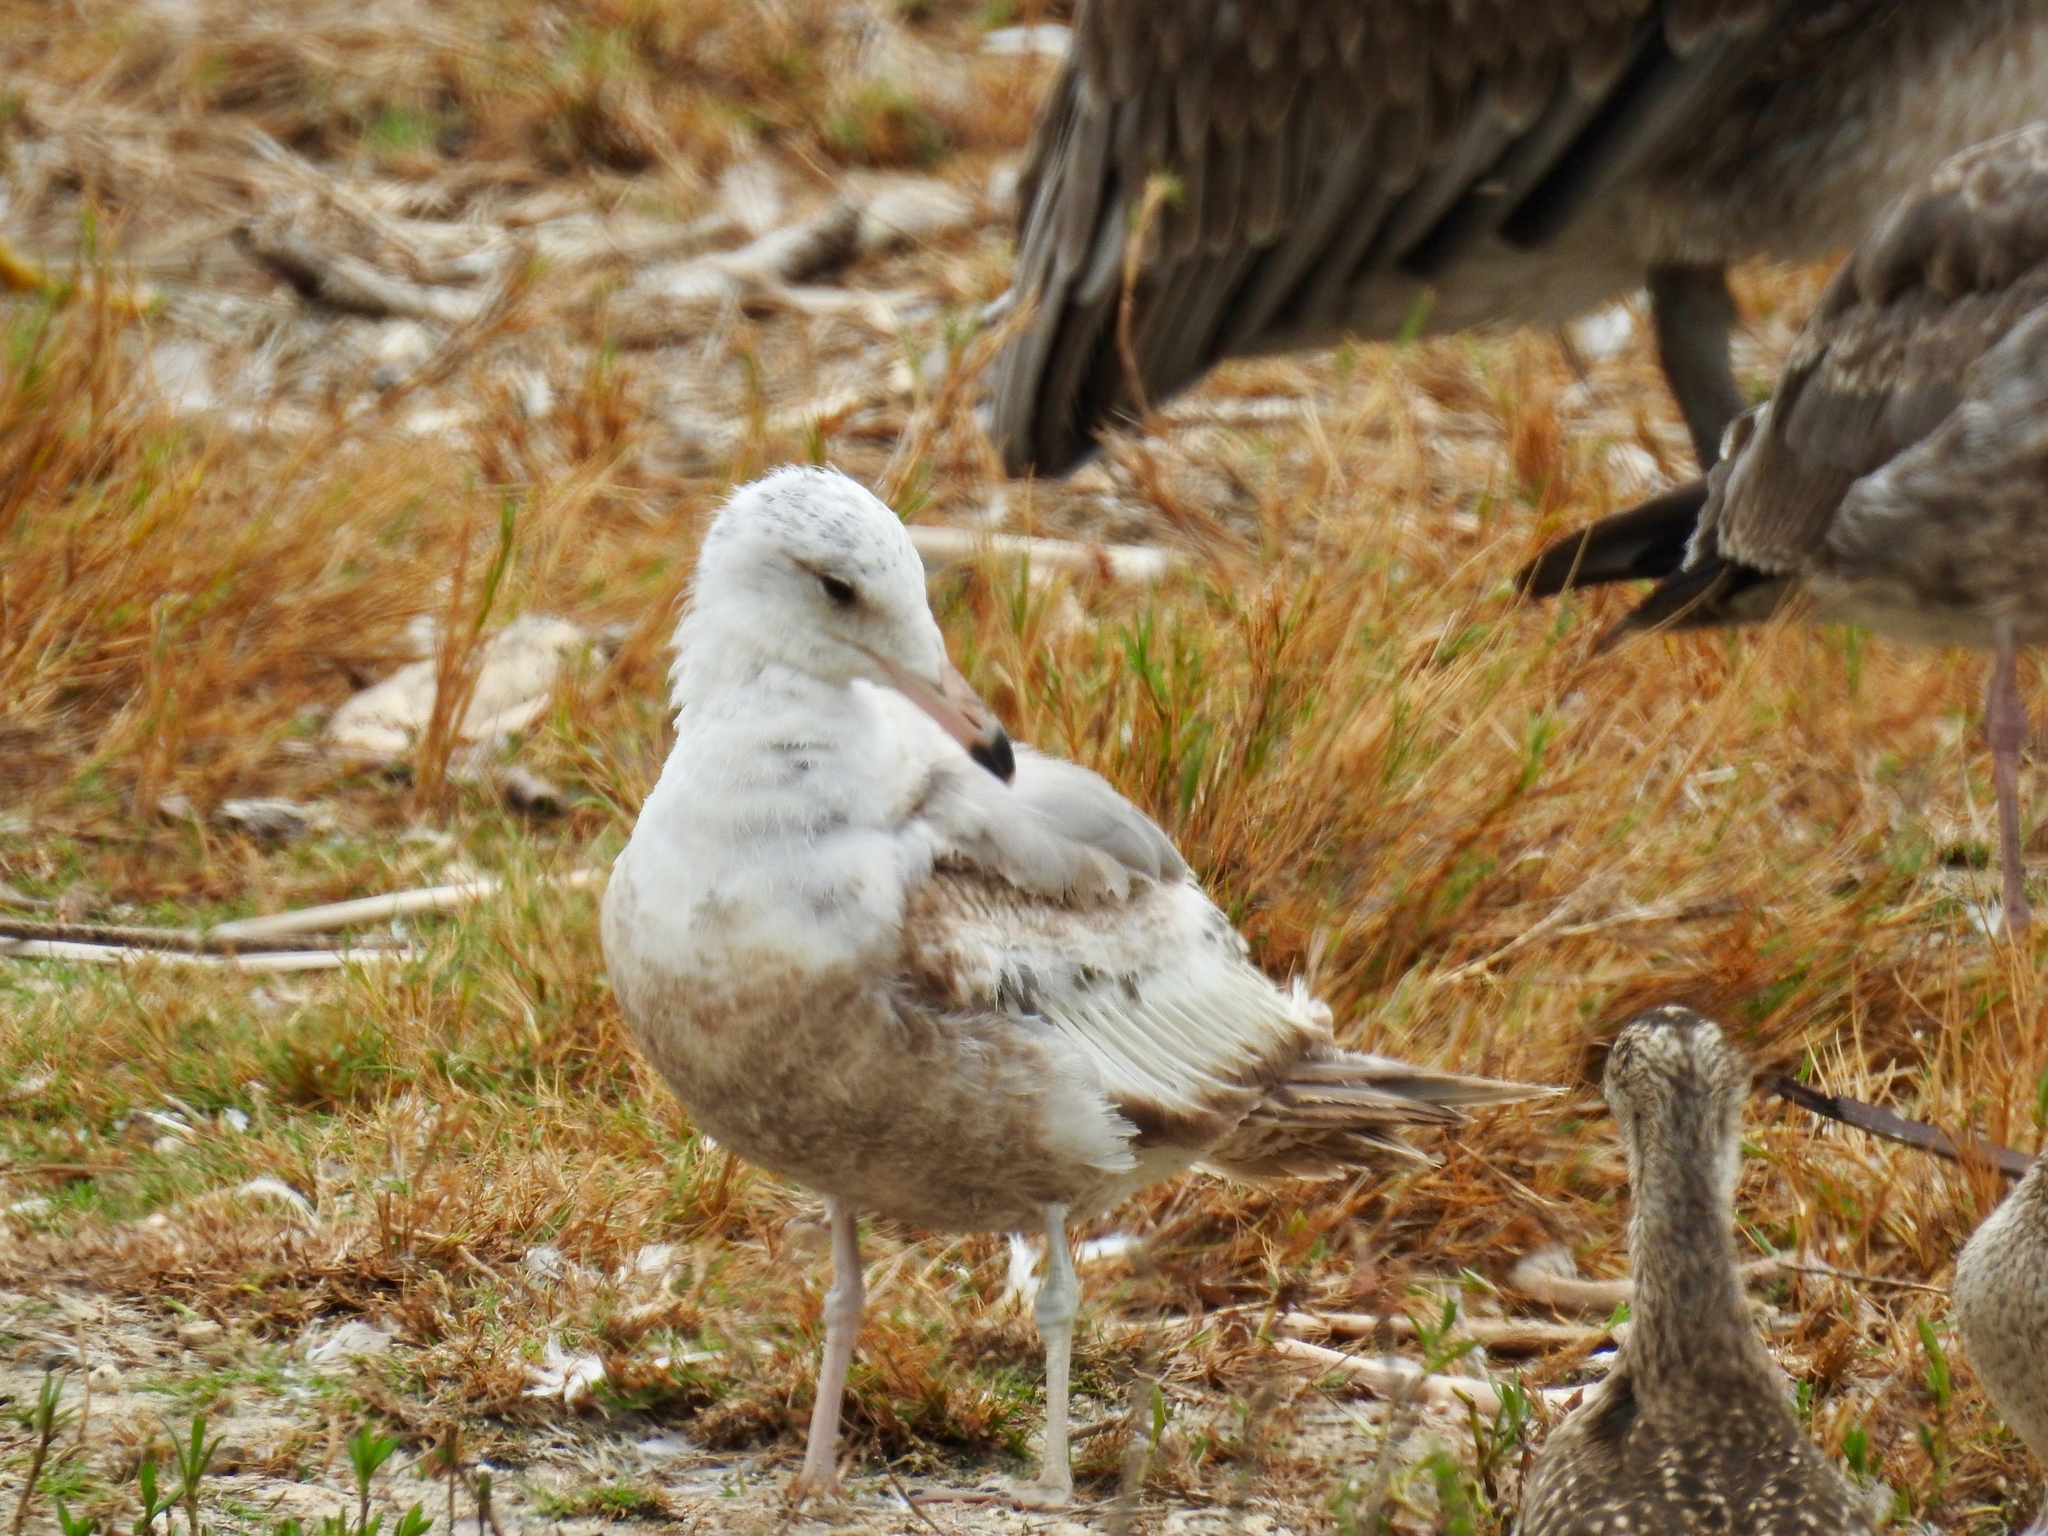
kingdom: Animalia
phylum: Chordata
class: Aves
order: Charadriiformes
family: Laridae
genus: Larus
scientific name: Larus californicus
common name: California gull
